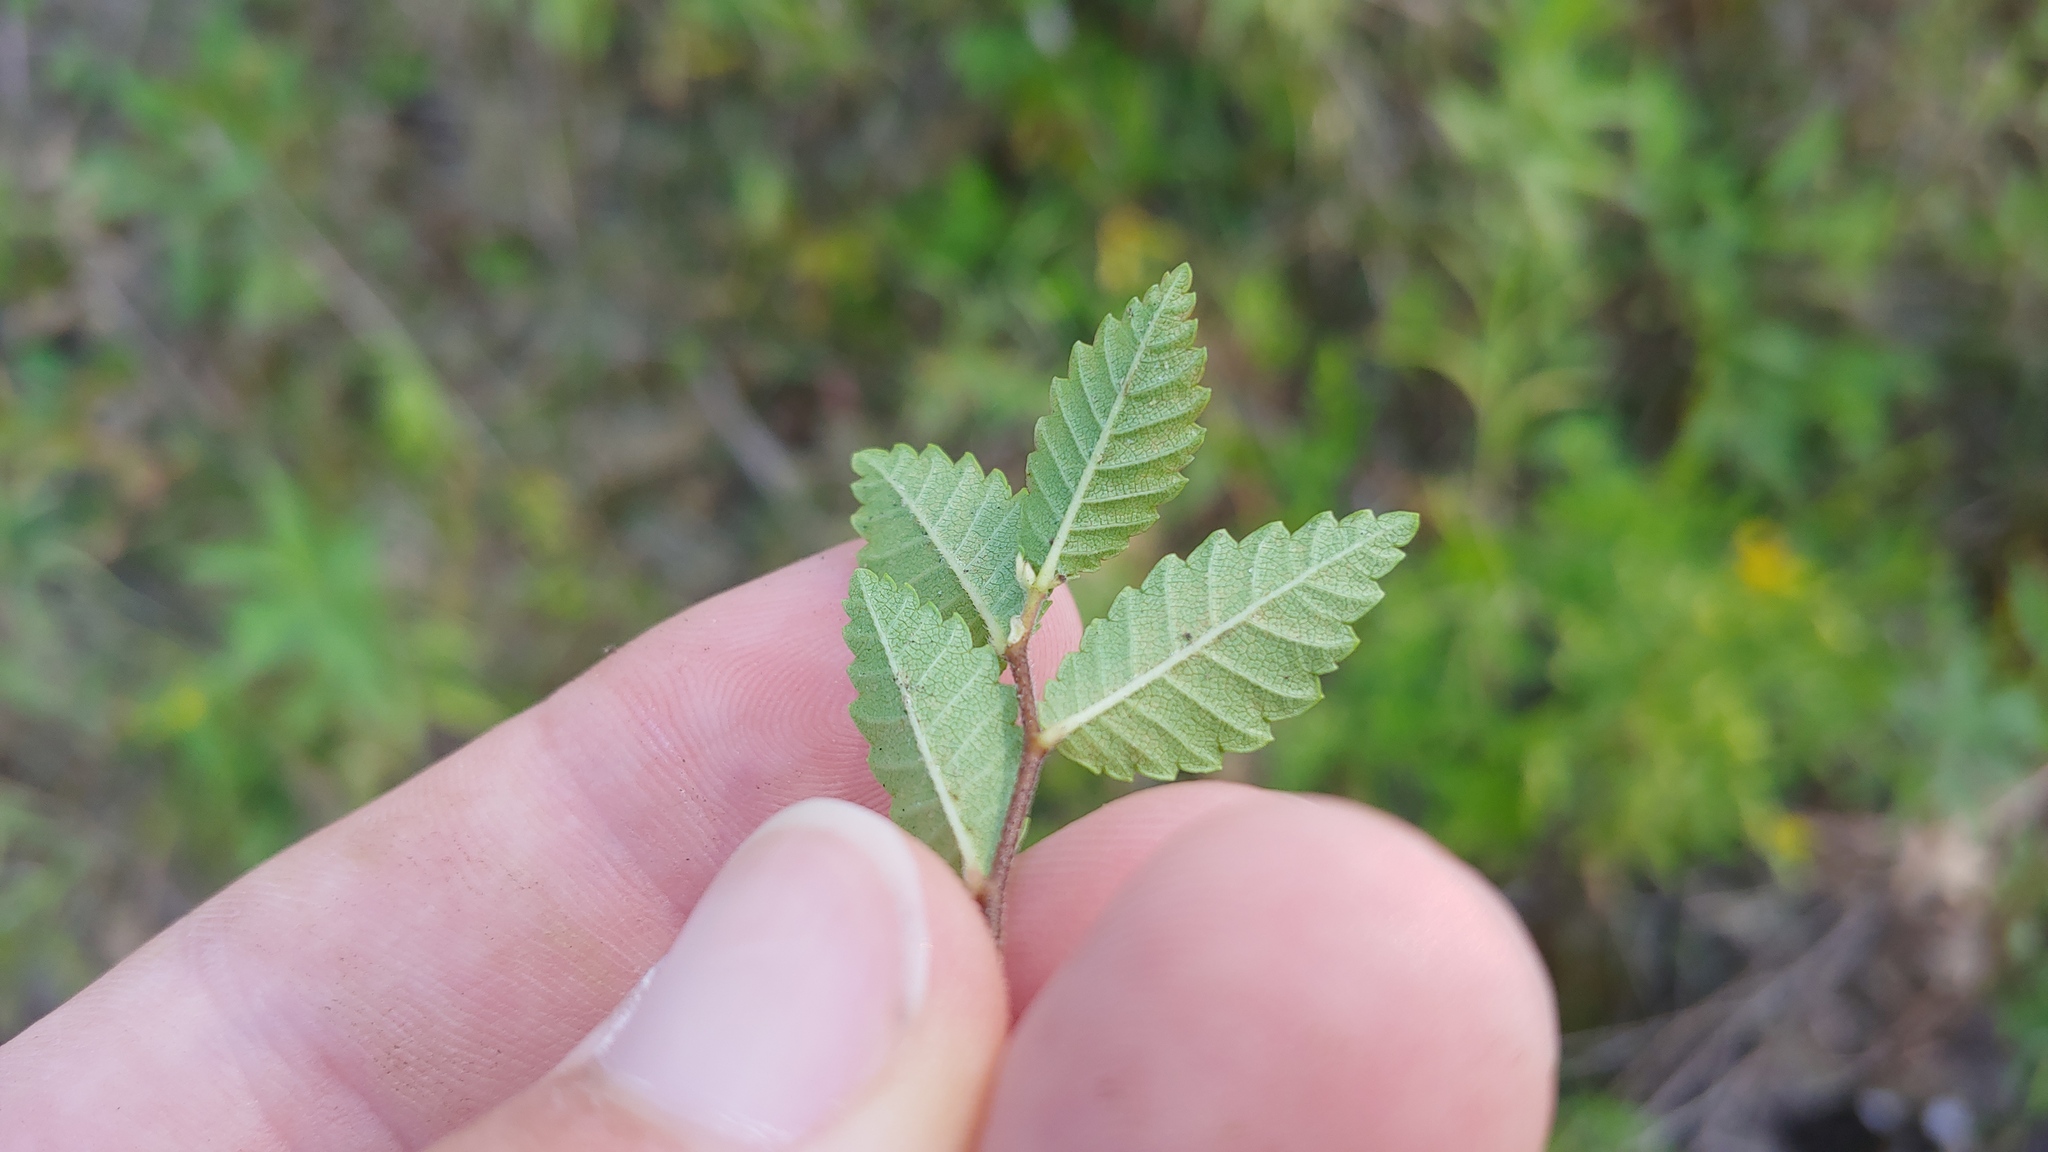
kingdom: Plantae
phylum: Tracheophyta
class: Magnoliopsida
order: Rosales
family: Ulmaceae
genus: Ulmus
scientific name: Ulmus pumila
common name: Siberian elm
